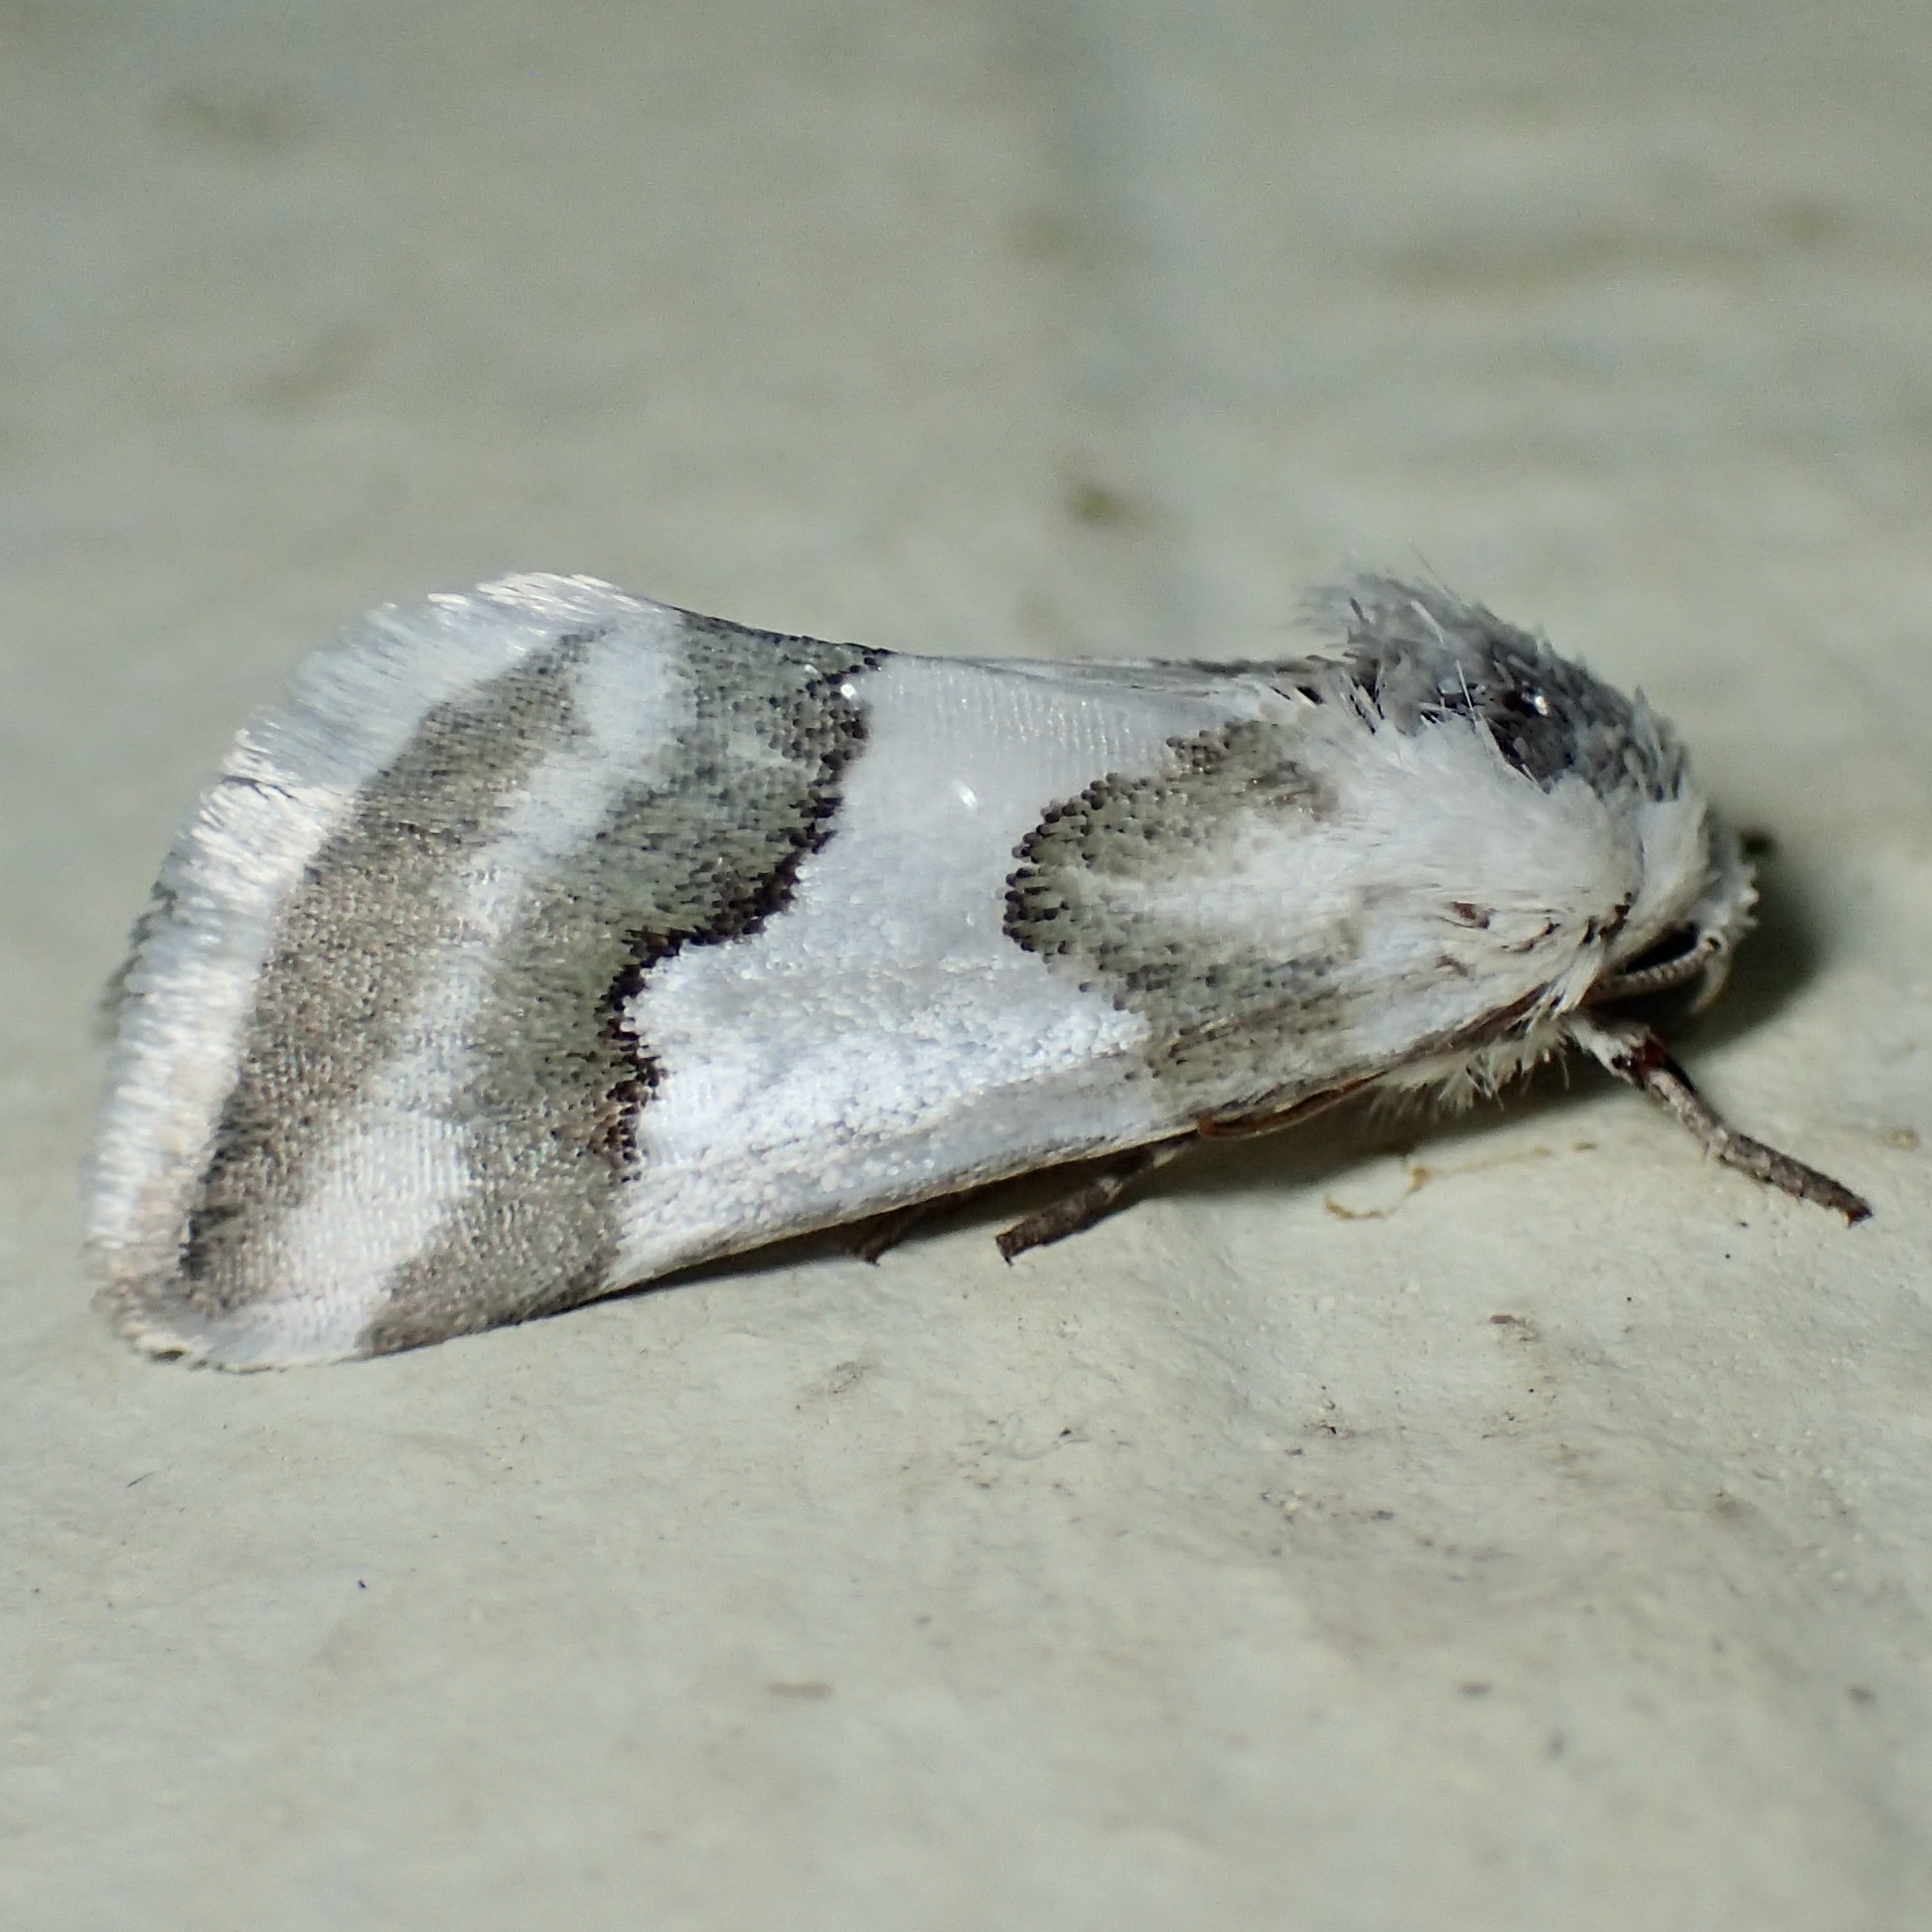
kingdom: Animalia
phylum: Arthropoda
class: Insecta
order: Lepidoptera
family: Noctuidae
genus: Schinia
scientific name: Schinia hulstia
